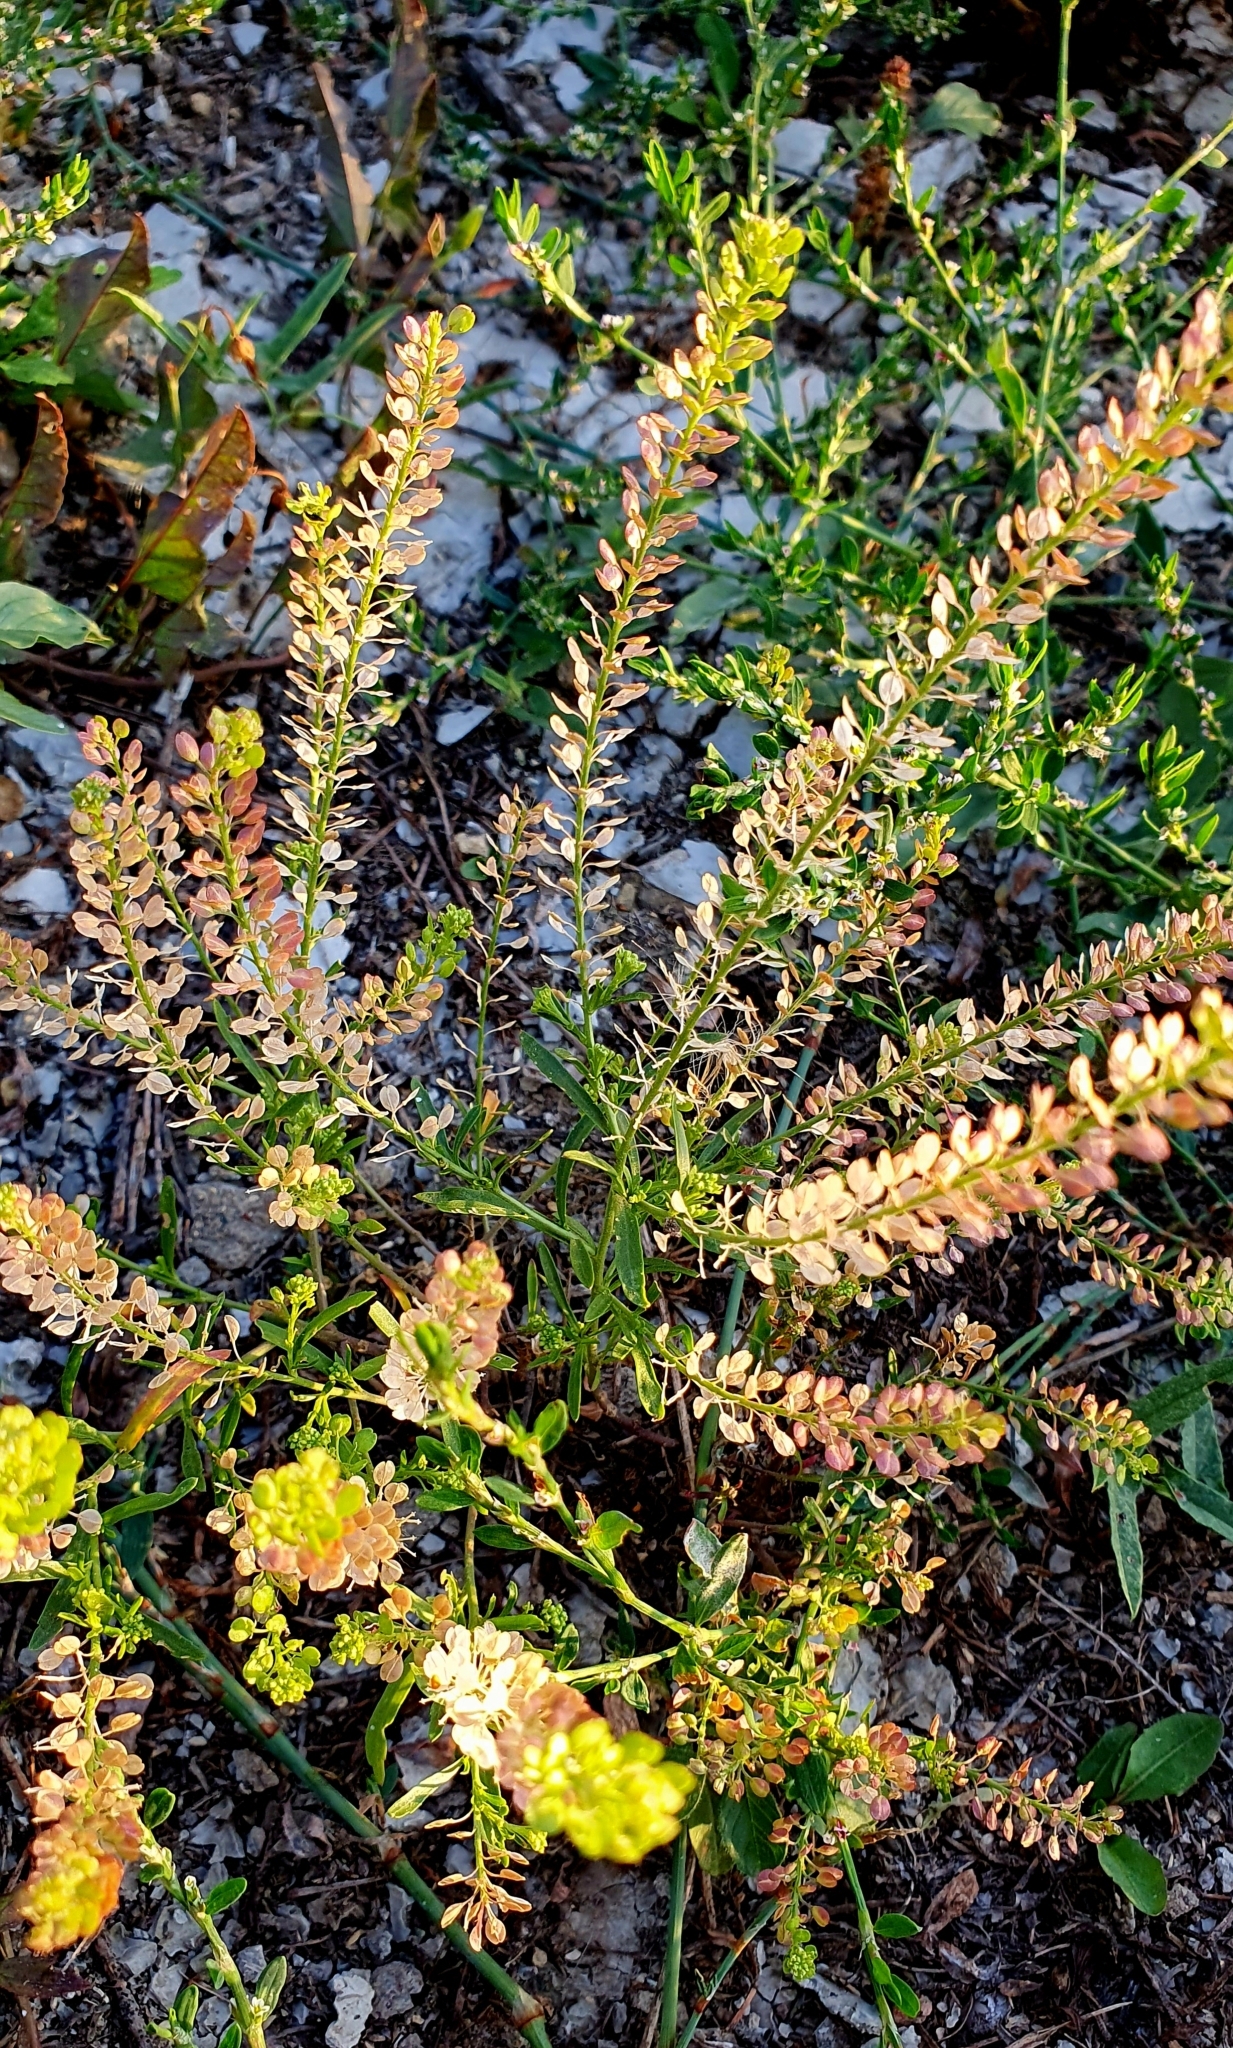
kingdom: Plantae
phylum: Tracheophyta
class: Magnoliopsida
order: Brassicales
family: Brassicaceae
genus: Lepidium
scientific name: Lepidium densiflorum
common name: Miner's pepperwort
